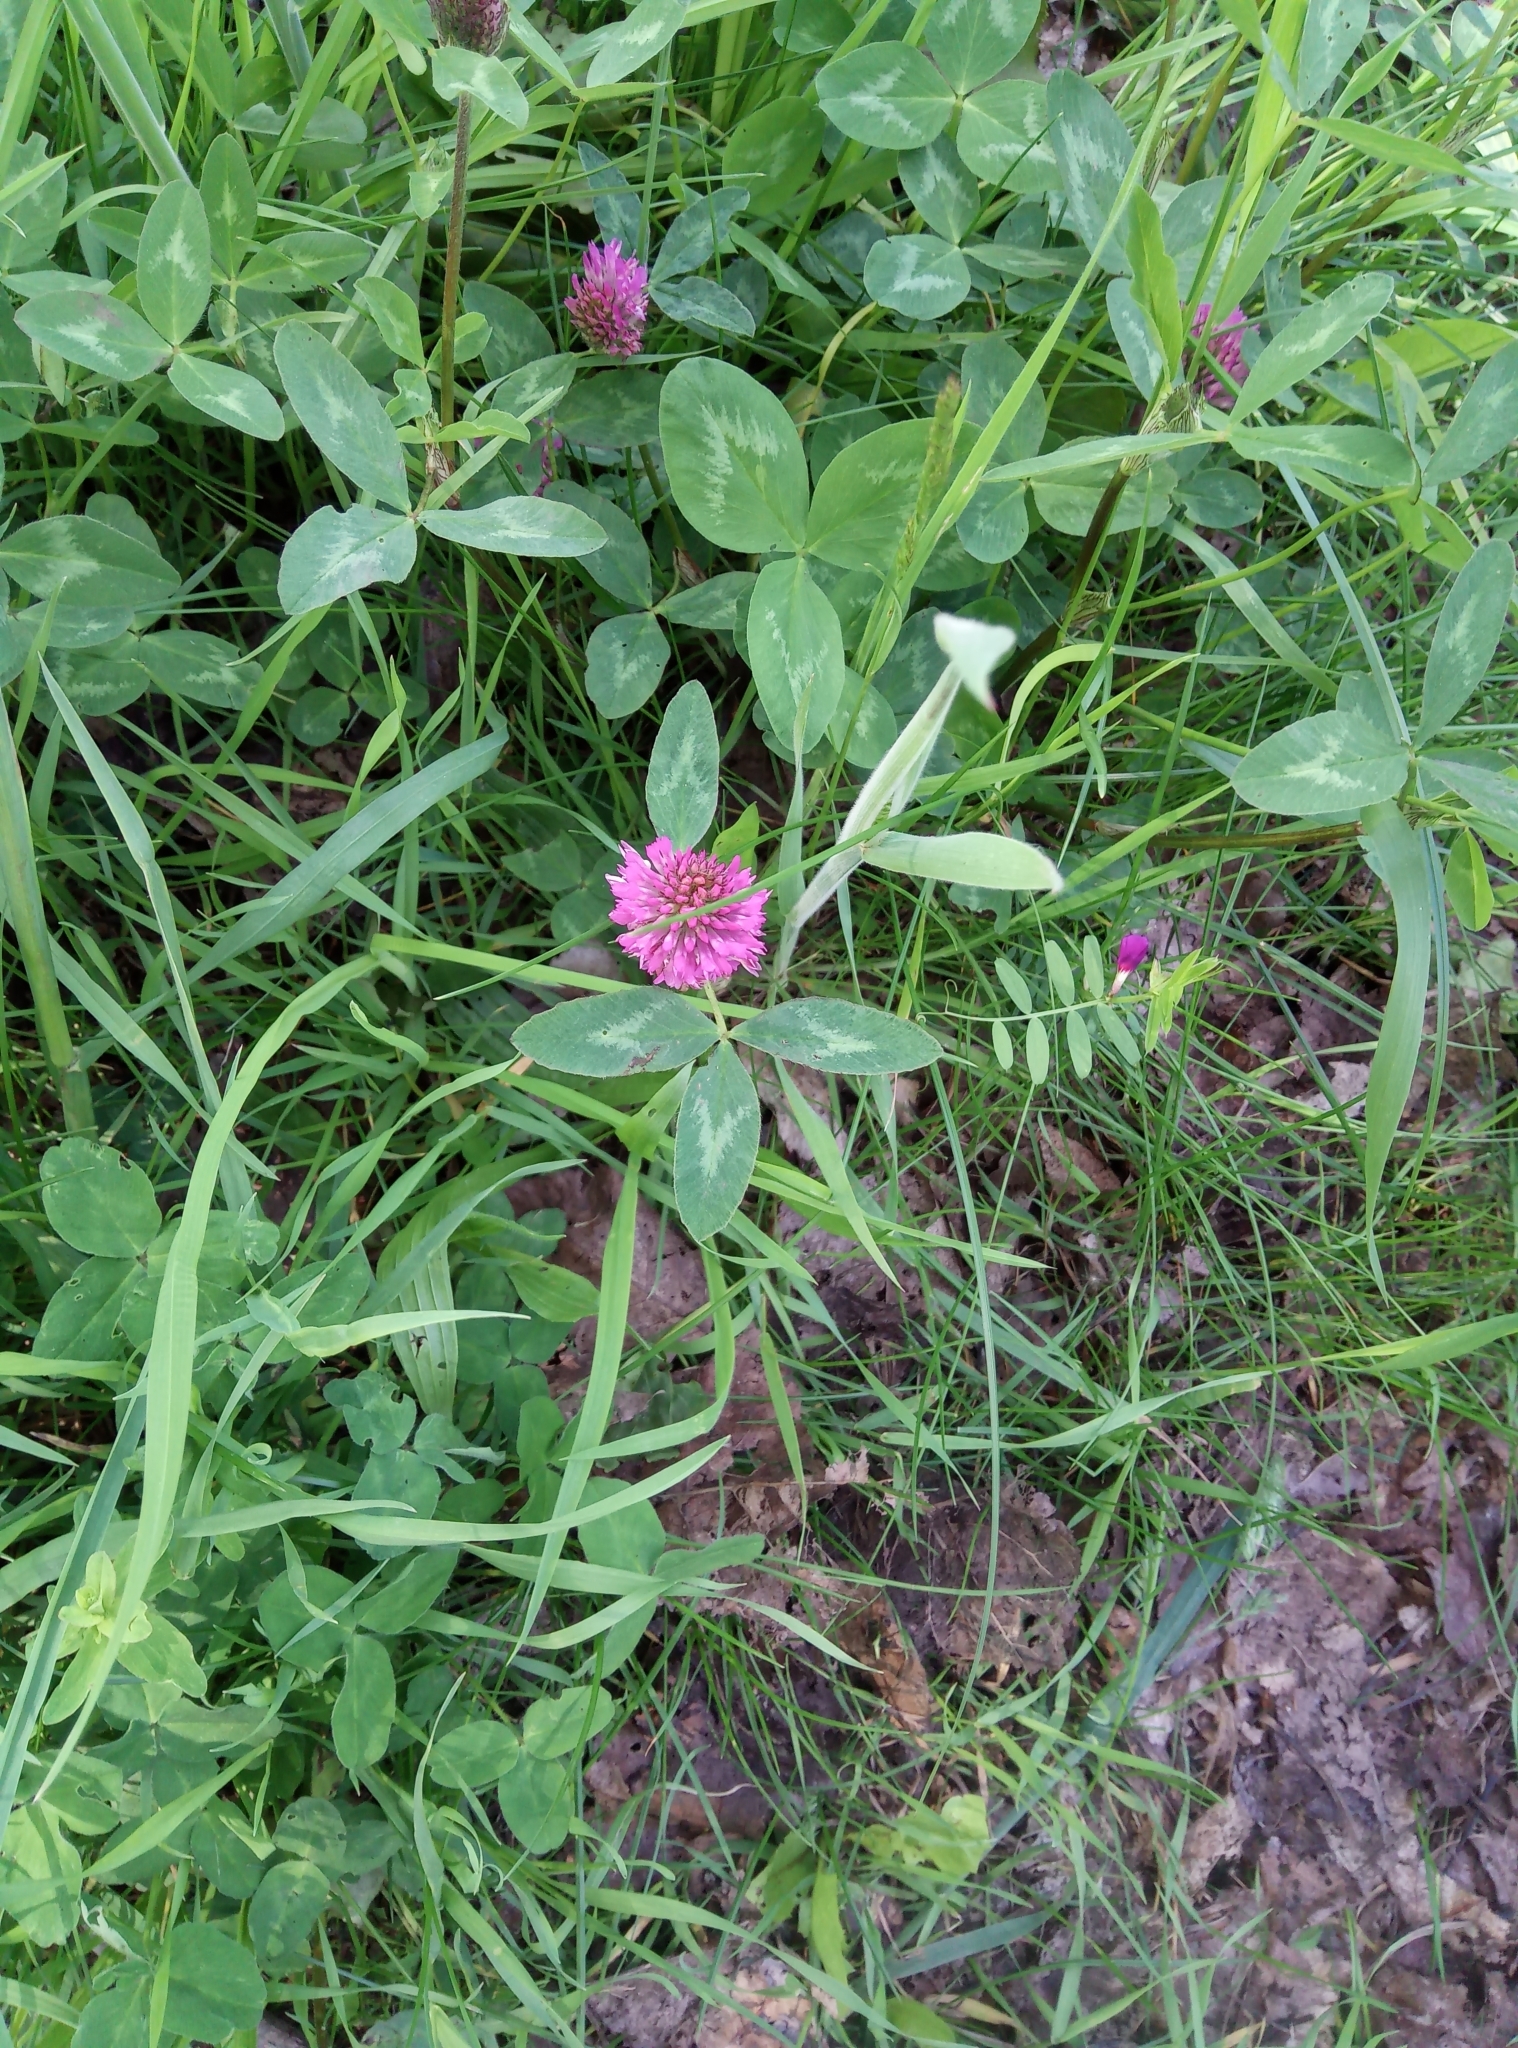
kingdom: Plantae
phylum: Tracheophyta
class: Magnoliopsida
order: Fabales
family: Fabaceae
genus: Trifolium
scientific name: Trifolium pratense
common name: Red clover
